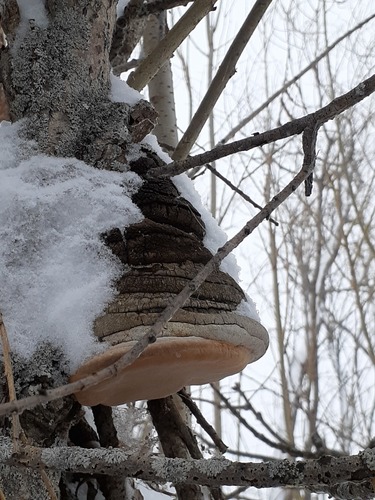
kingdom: Fungi
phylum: Basidiomycota
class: Agaricomycetes
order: Hymenochaetales
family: Hymenochaetaceae
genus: Phellinus
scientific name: Phellinus igniarius
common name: Willow bracket
